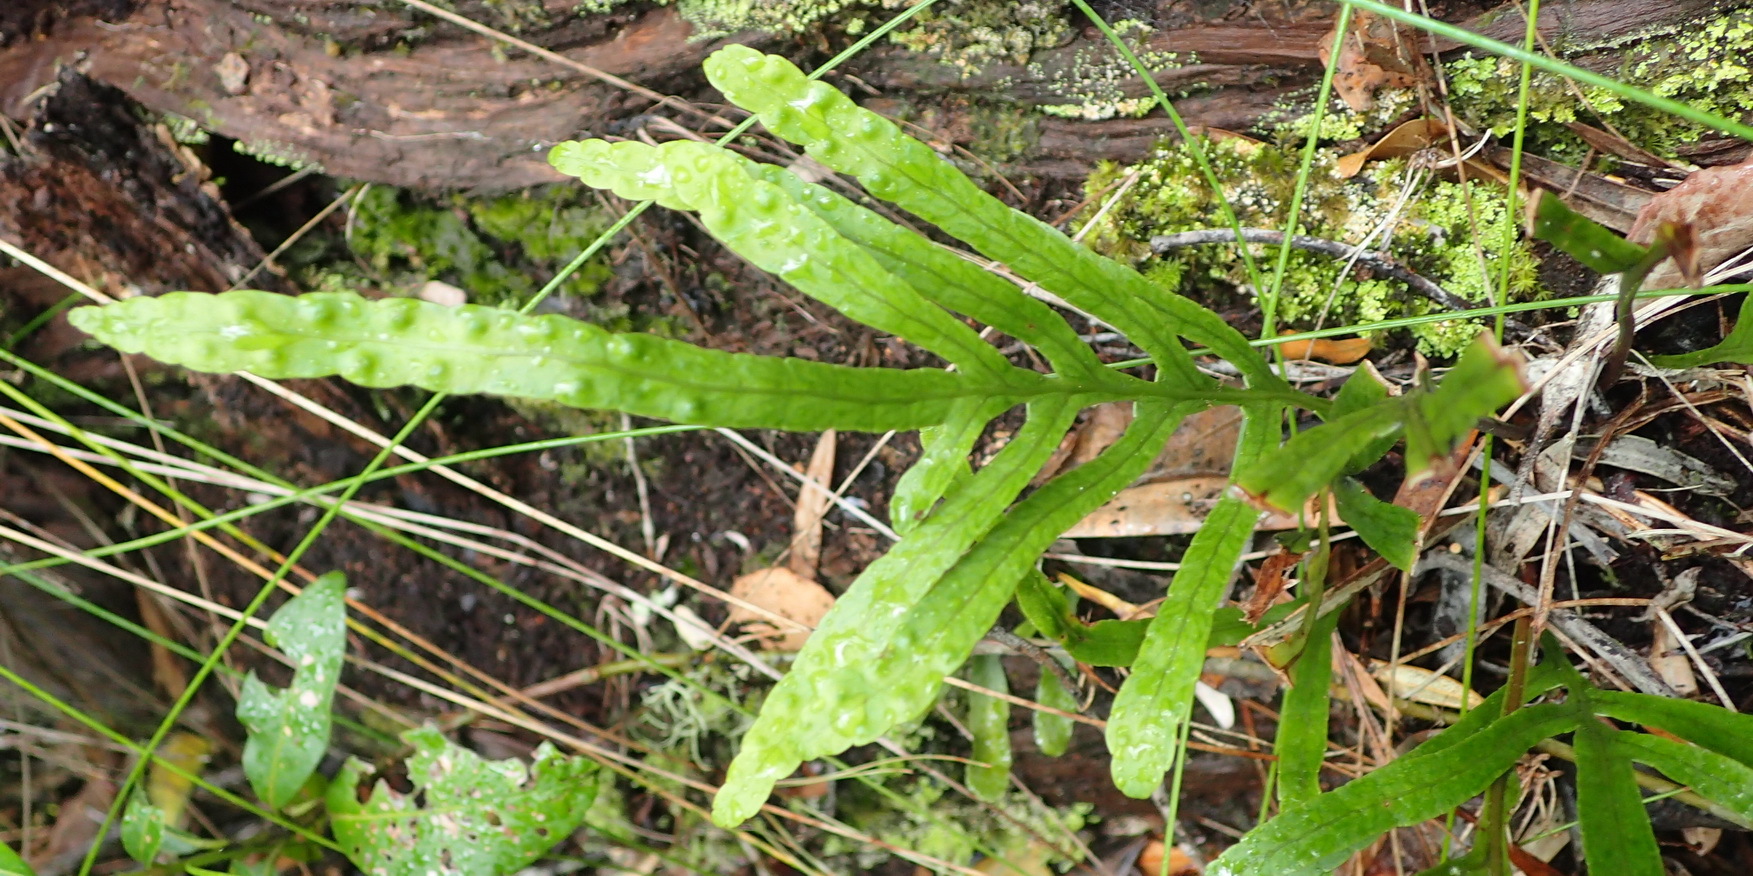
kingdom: Plantae
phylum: Tracheophyta
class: Polypodiopsida
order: Polypodiales
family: Polypodiaceae
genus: Polypodium
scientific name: Polypodium ensiforme
